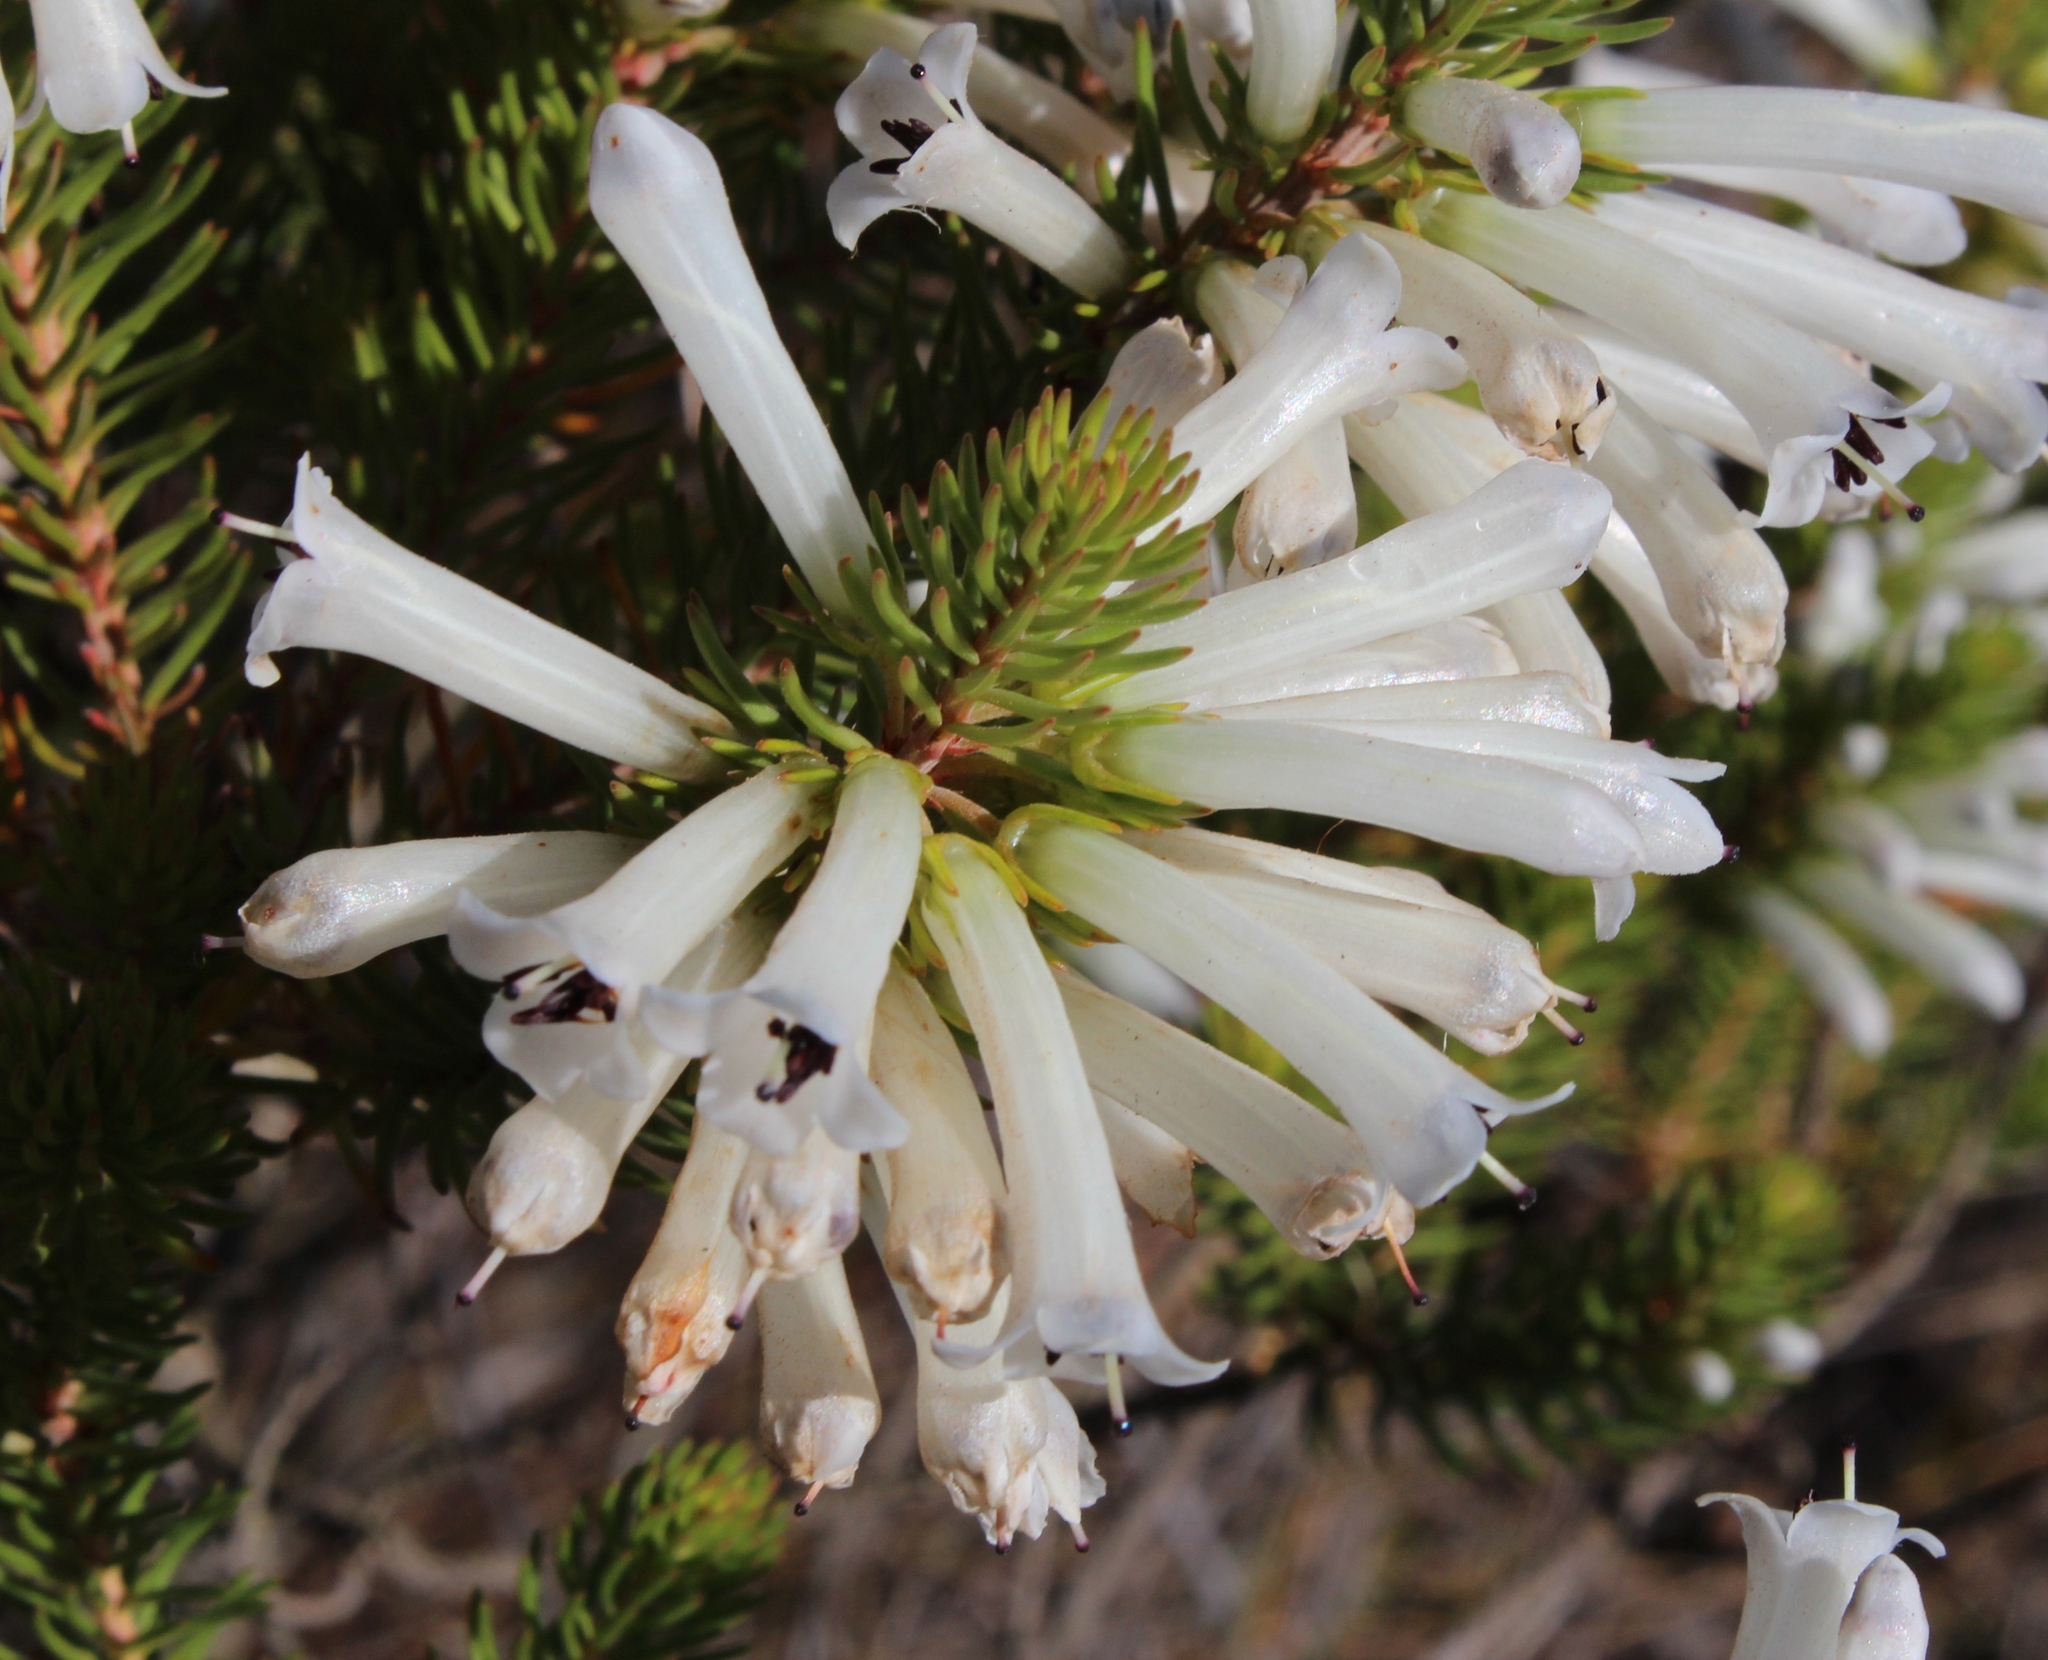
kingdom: Plantae
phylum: Tracheophyta
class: Magnoliopsida
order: Ericales
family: Ericaceae
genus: Erica
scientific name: Erica pinea
